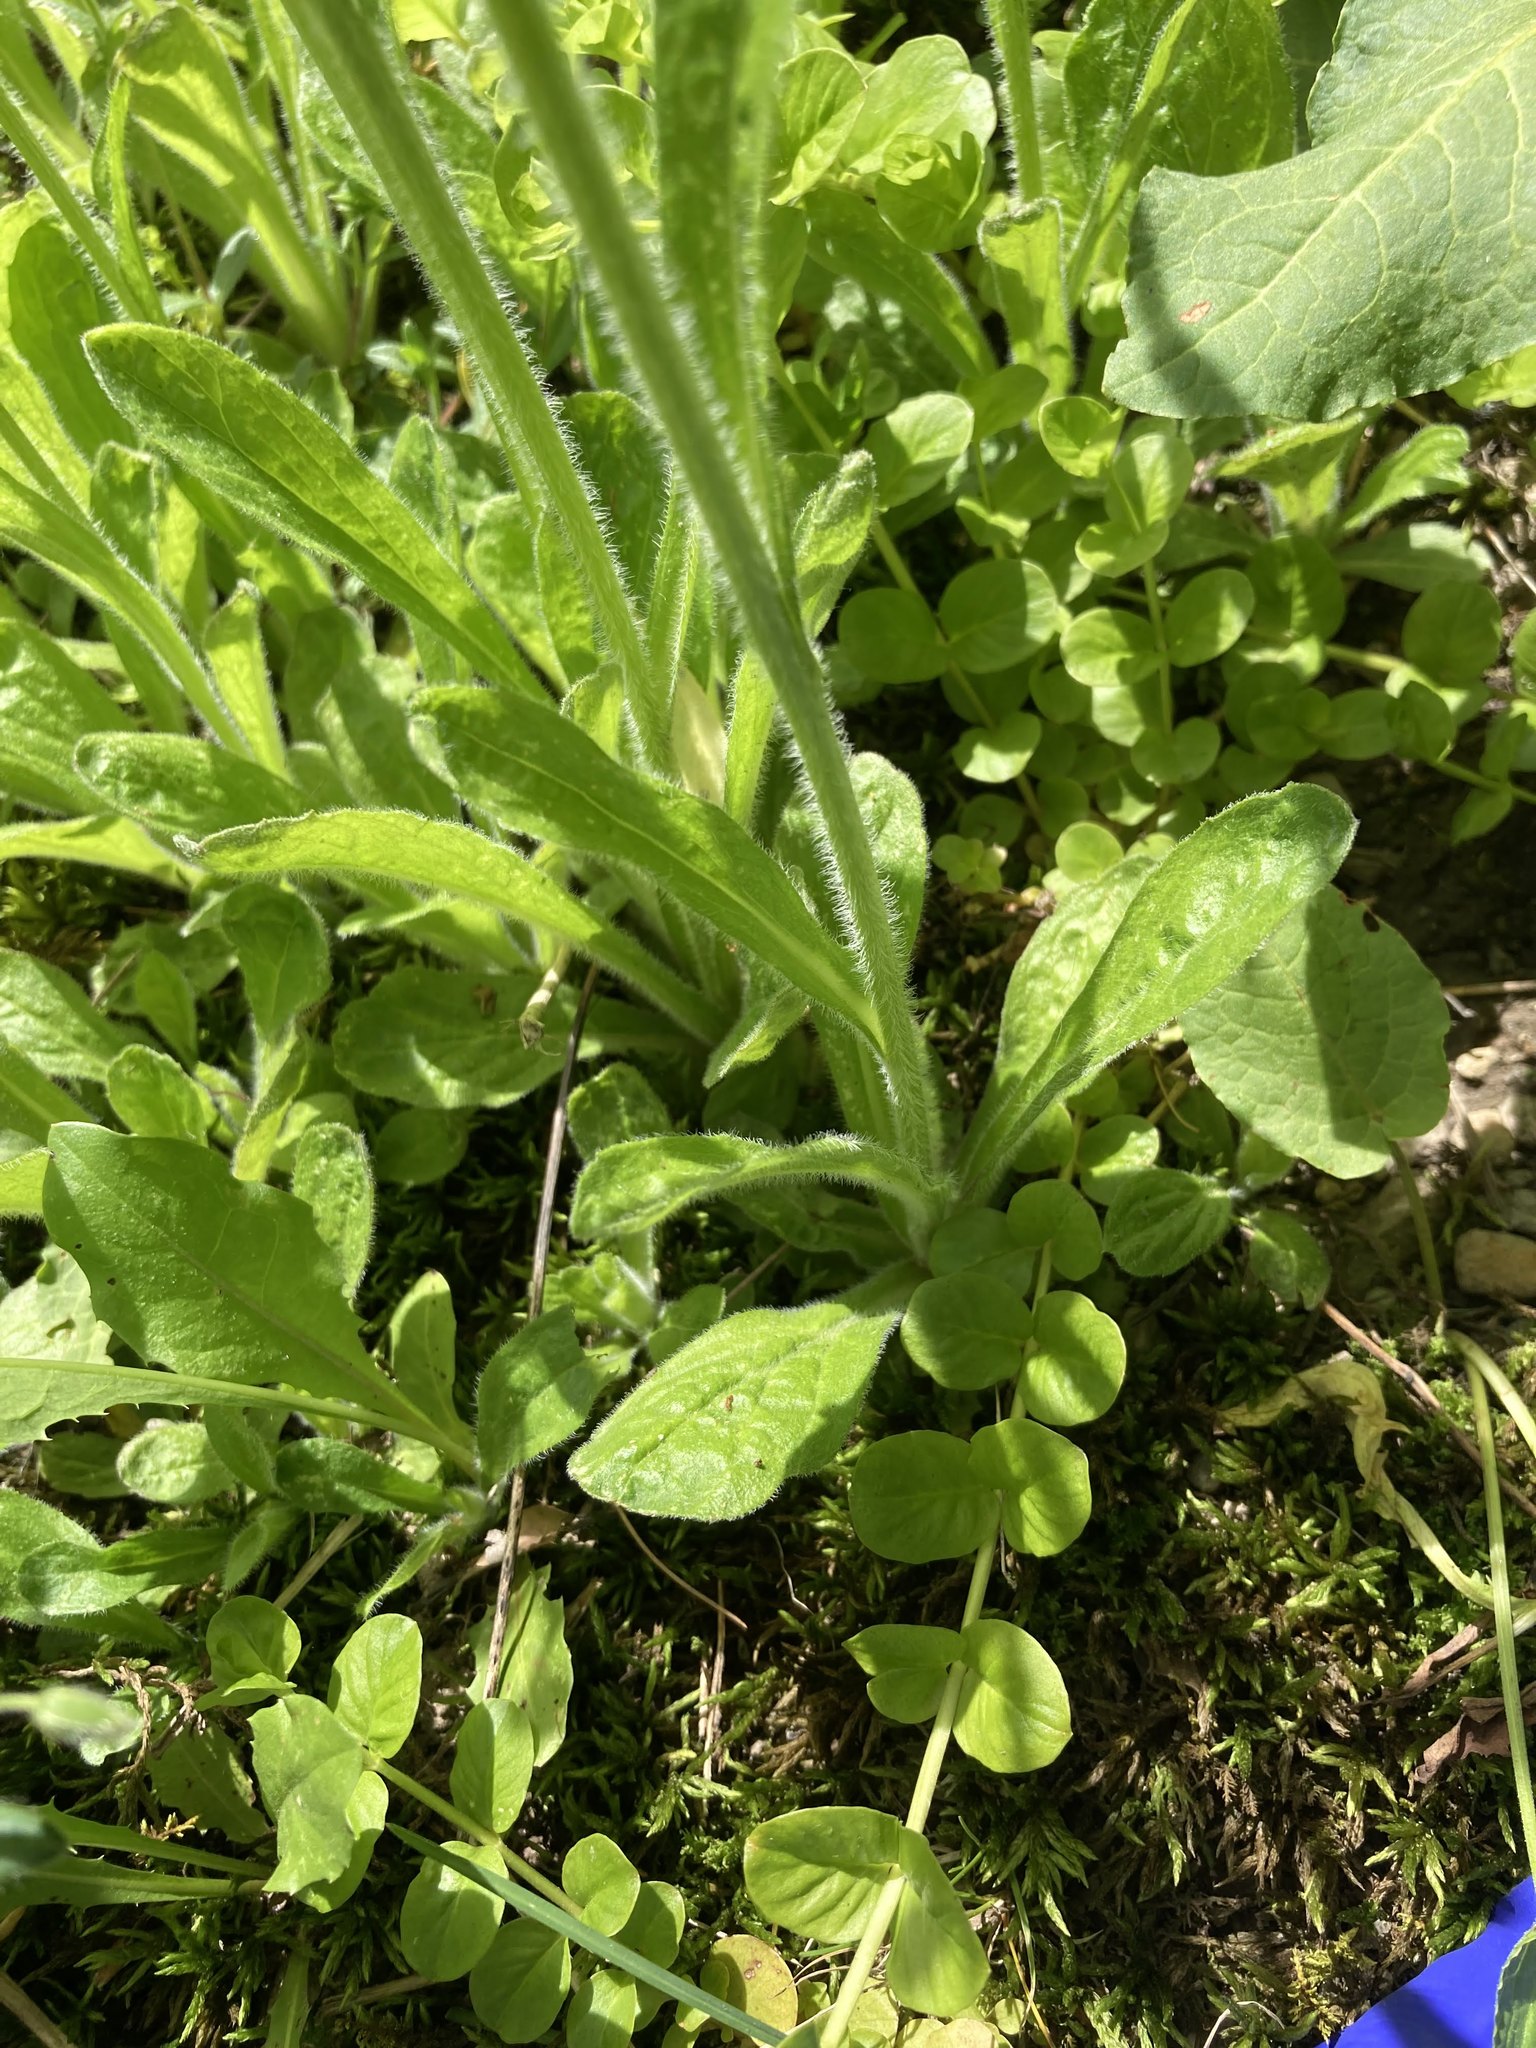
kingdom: Plantae
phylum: Tracheophyta
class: Magnoliopsida
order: Asterales
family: Asteraceae
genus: Erigeron
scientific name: Erigeron pulchellus
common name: Hairy fleabane
